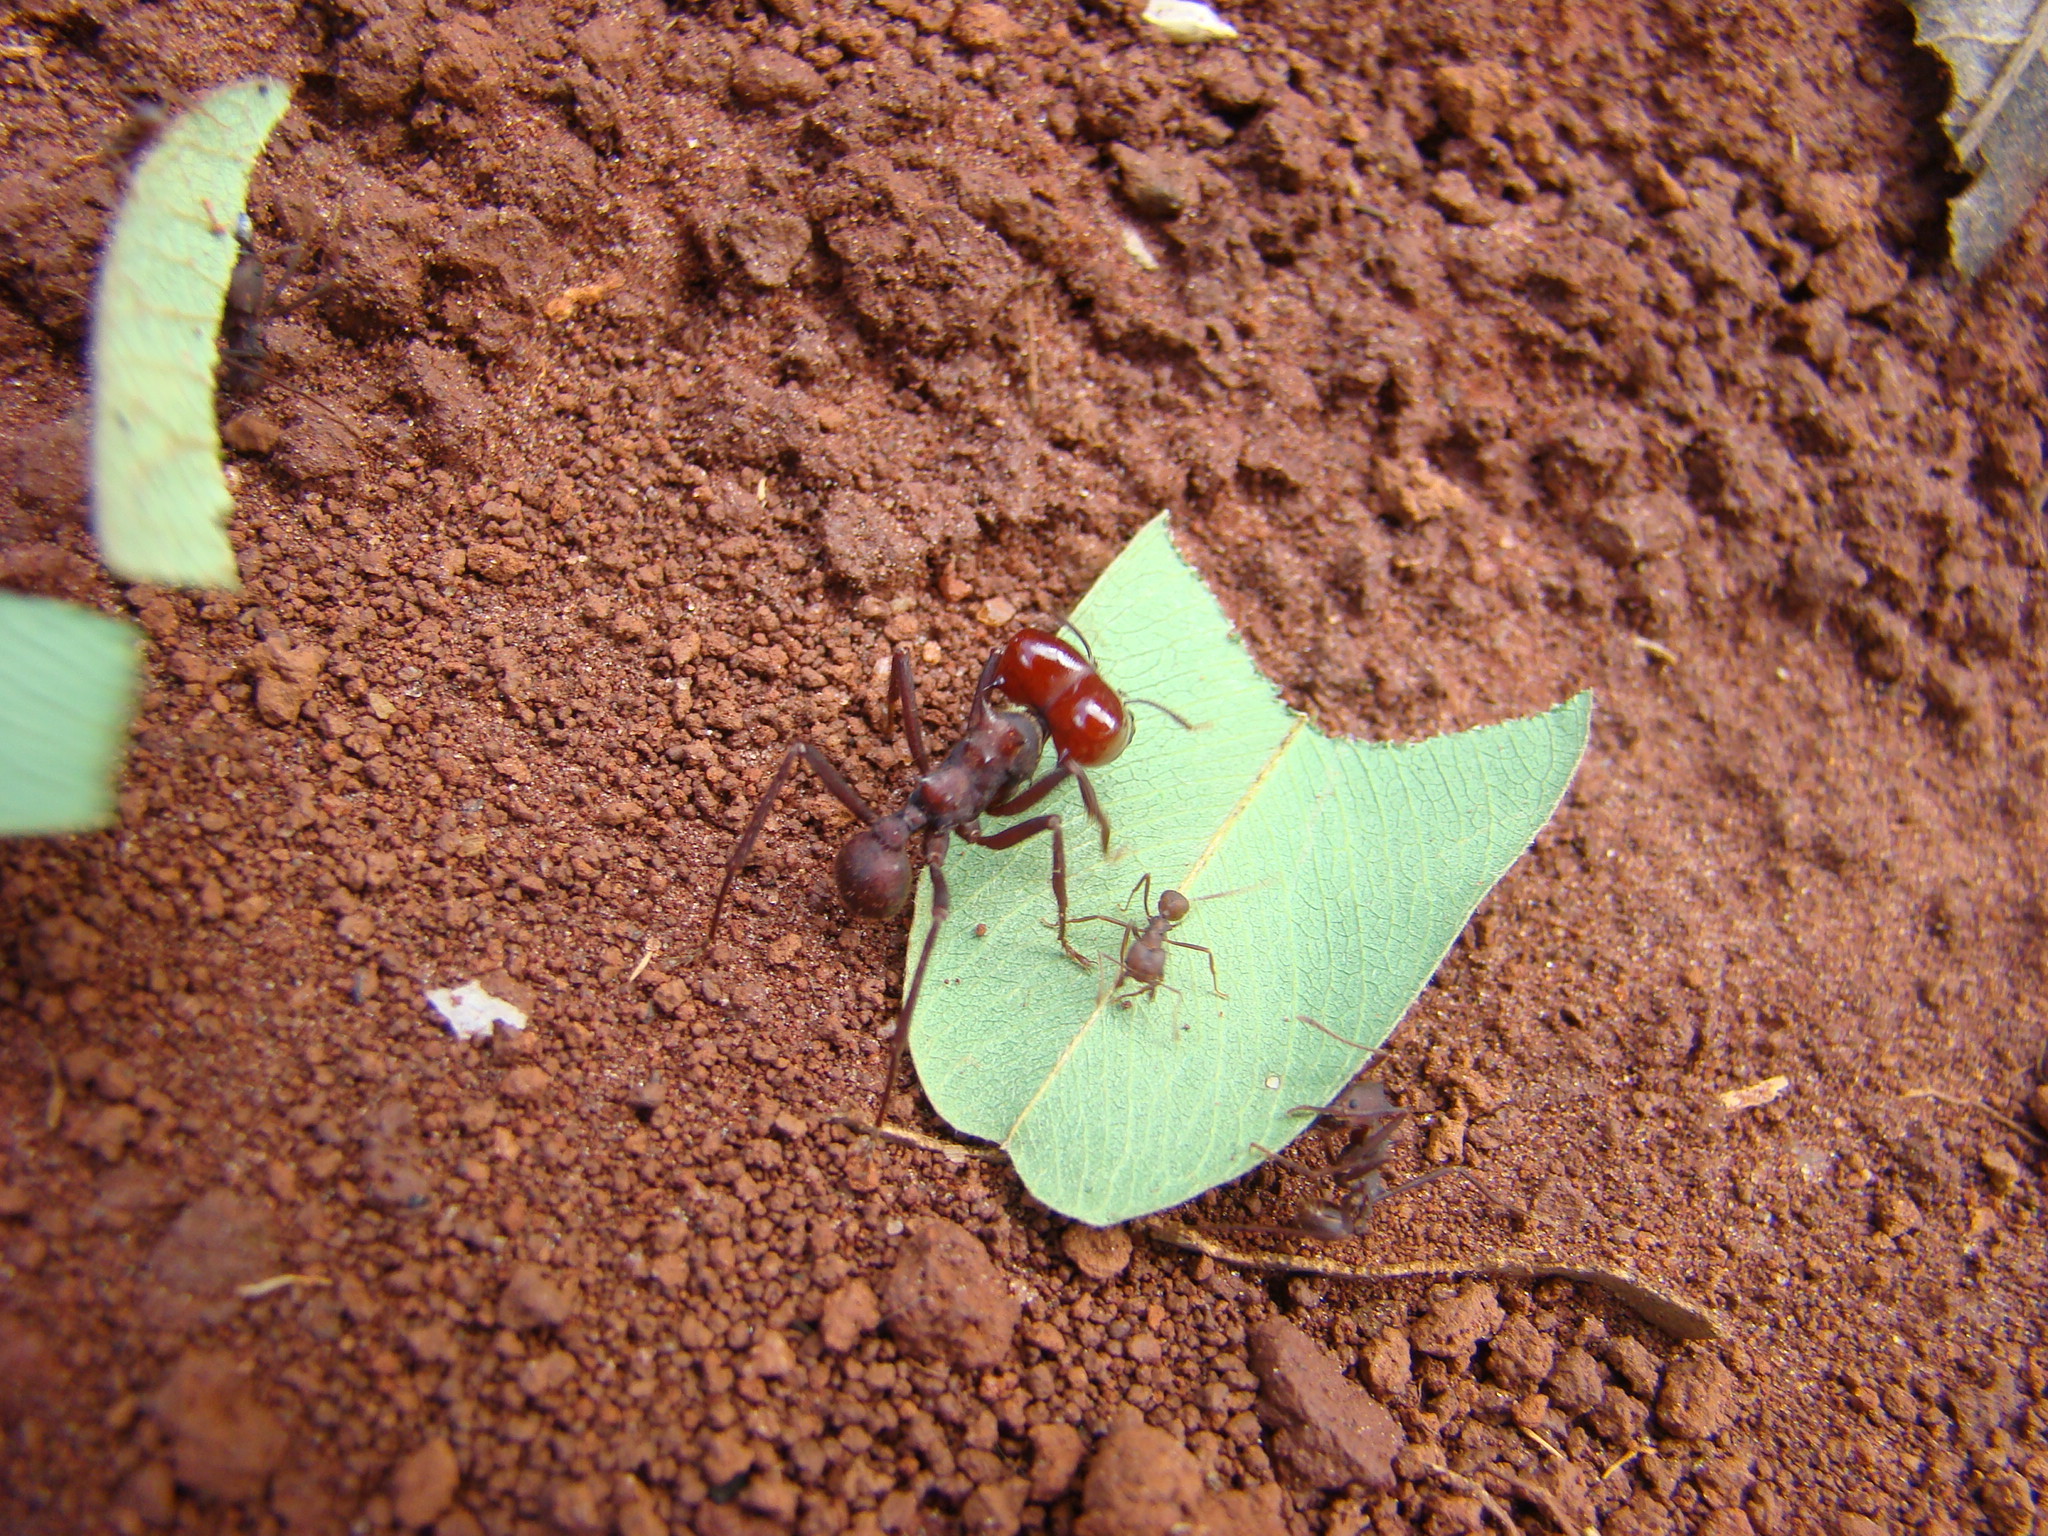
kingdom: Animalia
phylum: Arthropoda
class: Insecta
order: Hymenoptera
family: Formicidae
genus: Atta
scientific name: Atta laevigata
